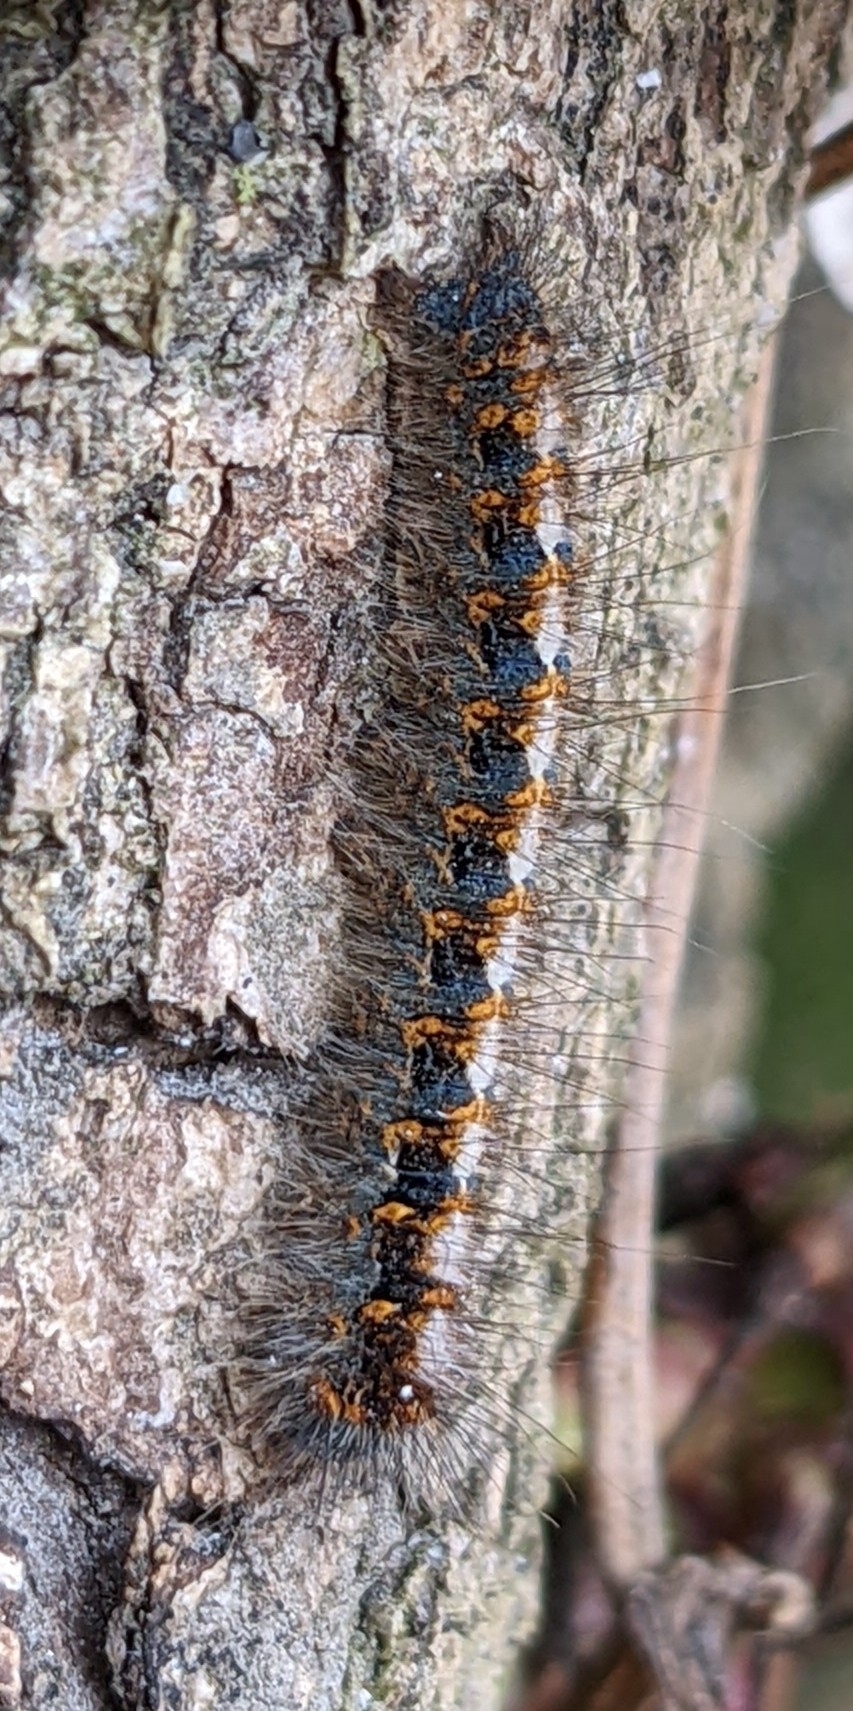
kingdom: Animalia
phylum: Arthropoda
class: Insecta
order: Lepidoptera
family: Lasiocampidae
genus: Lasiocampa
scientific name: Lasiocampa quercus
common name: Oak eggar
